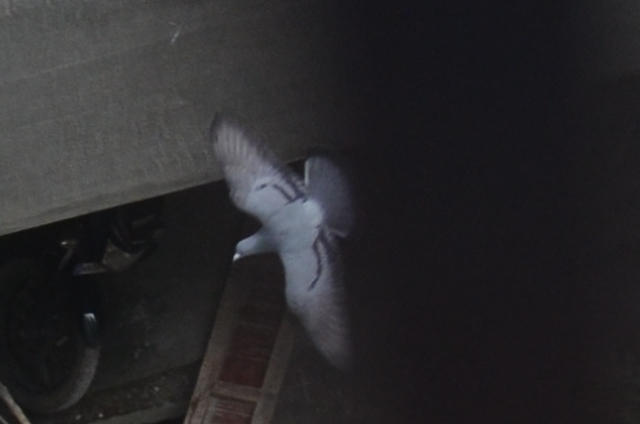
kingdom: Animalia
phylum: Chordata
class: Aves
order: Columbiformes
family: Columbidae
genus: Columba
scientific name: Columba livia
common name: Rock pigeon
